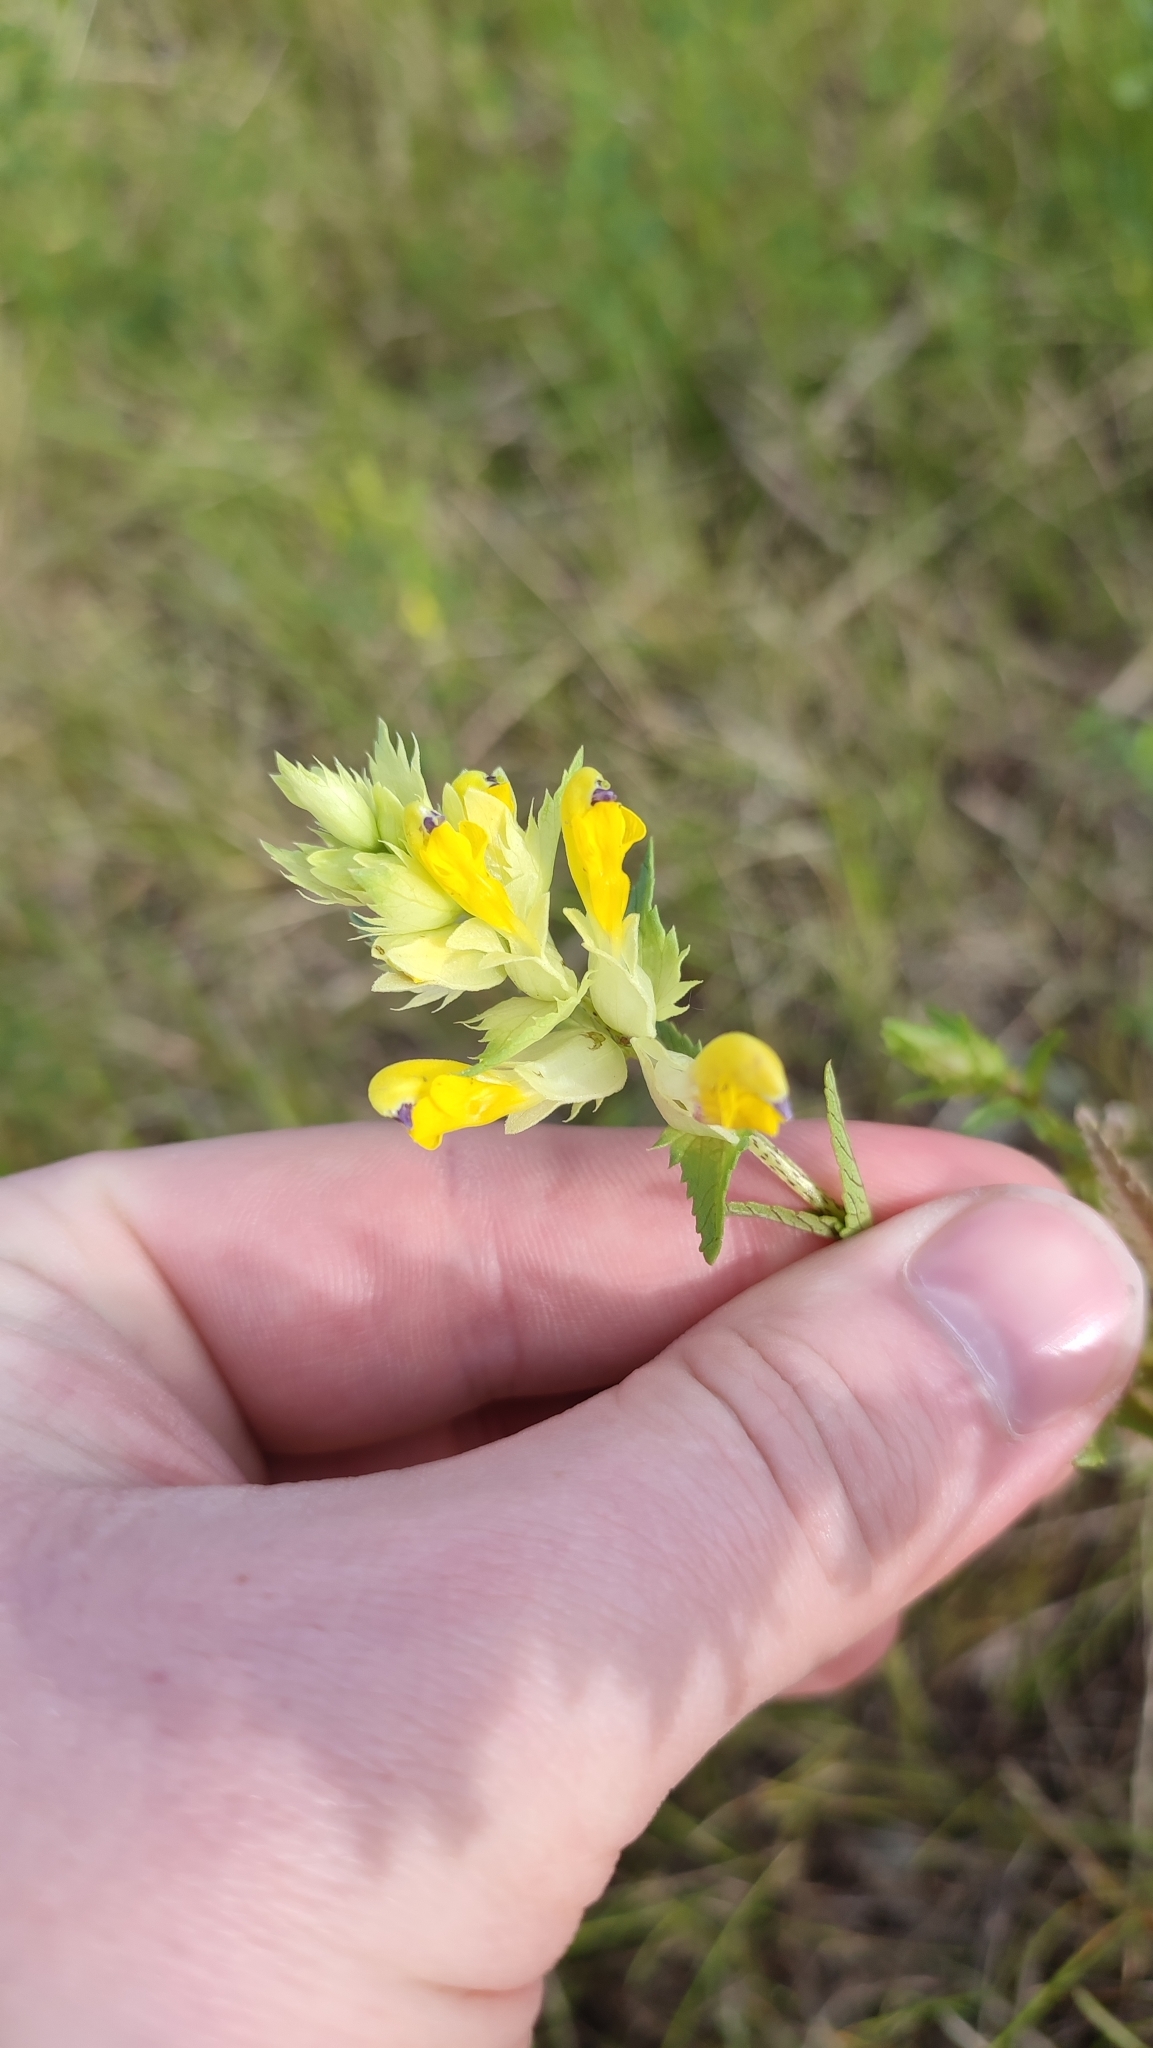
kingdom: Plantae
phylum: Tracheophyta
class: Magnoliopsida
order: Lamiales
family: Orobanchaceae
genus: Rhinanthus
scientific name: Rhinanthus serotinus
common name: Late-flowering yellow rattle
